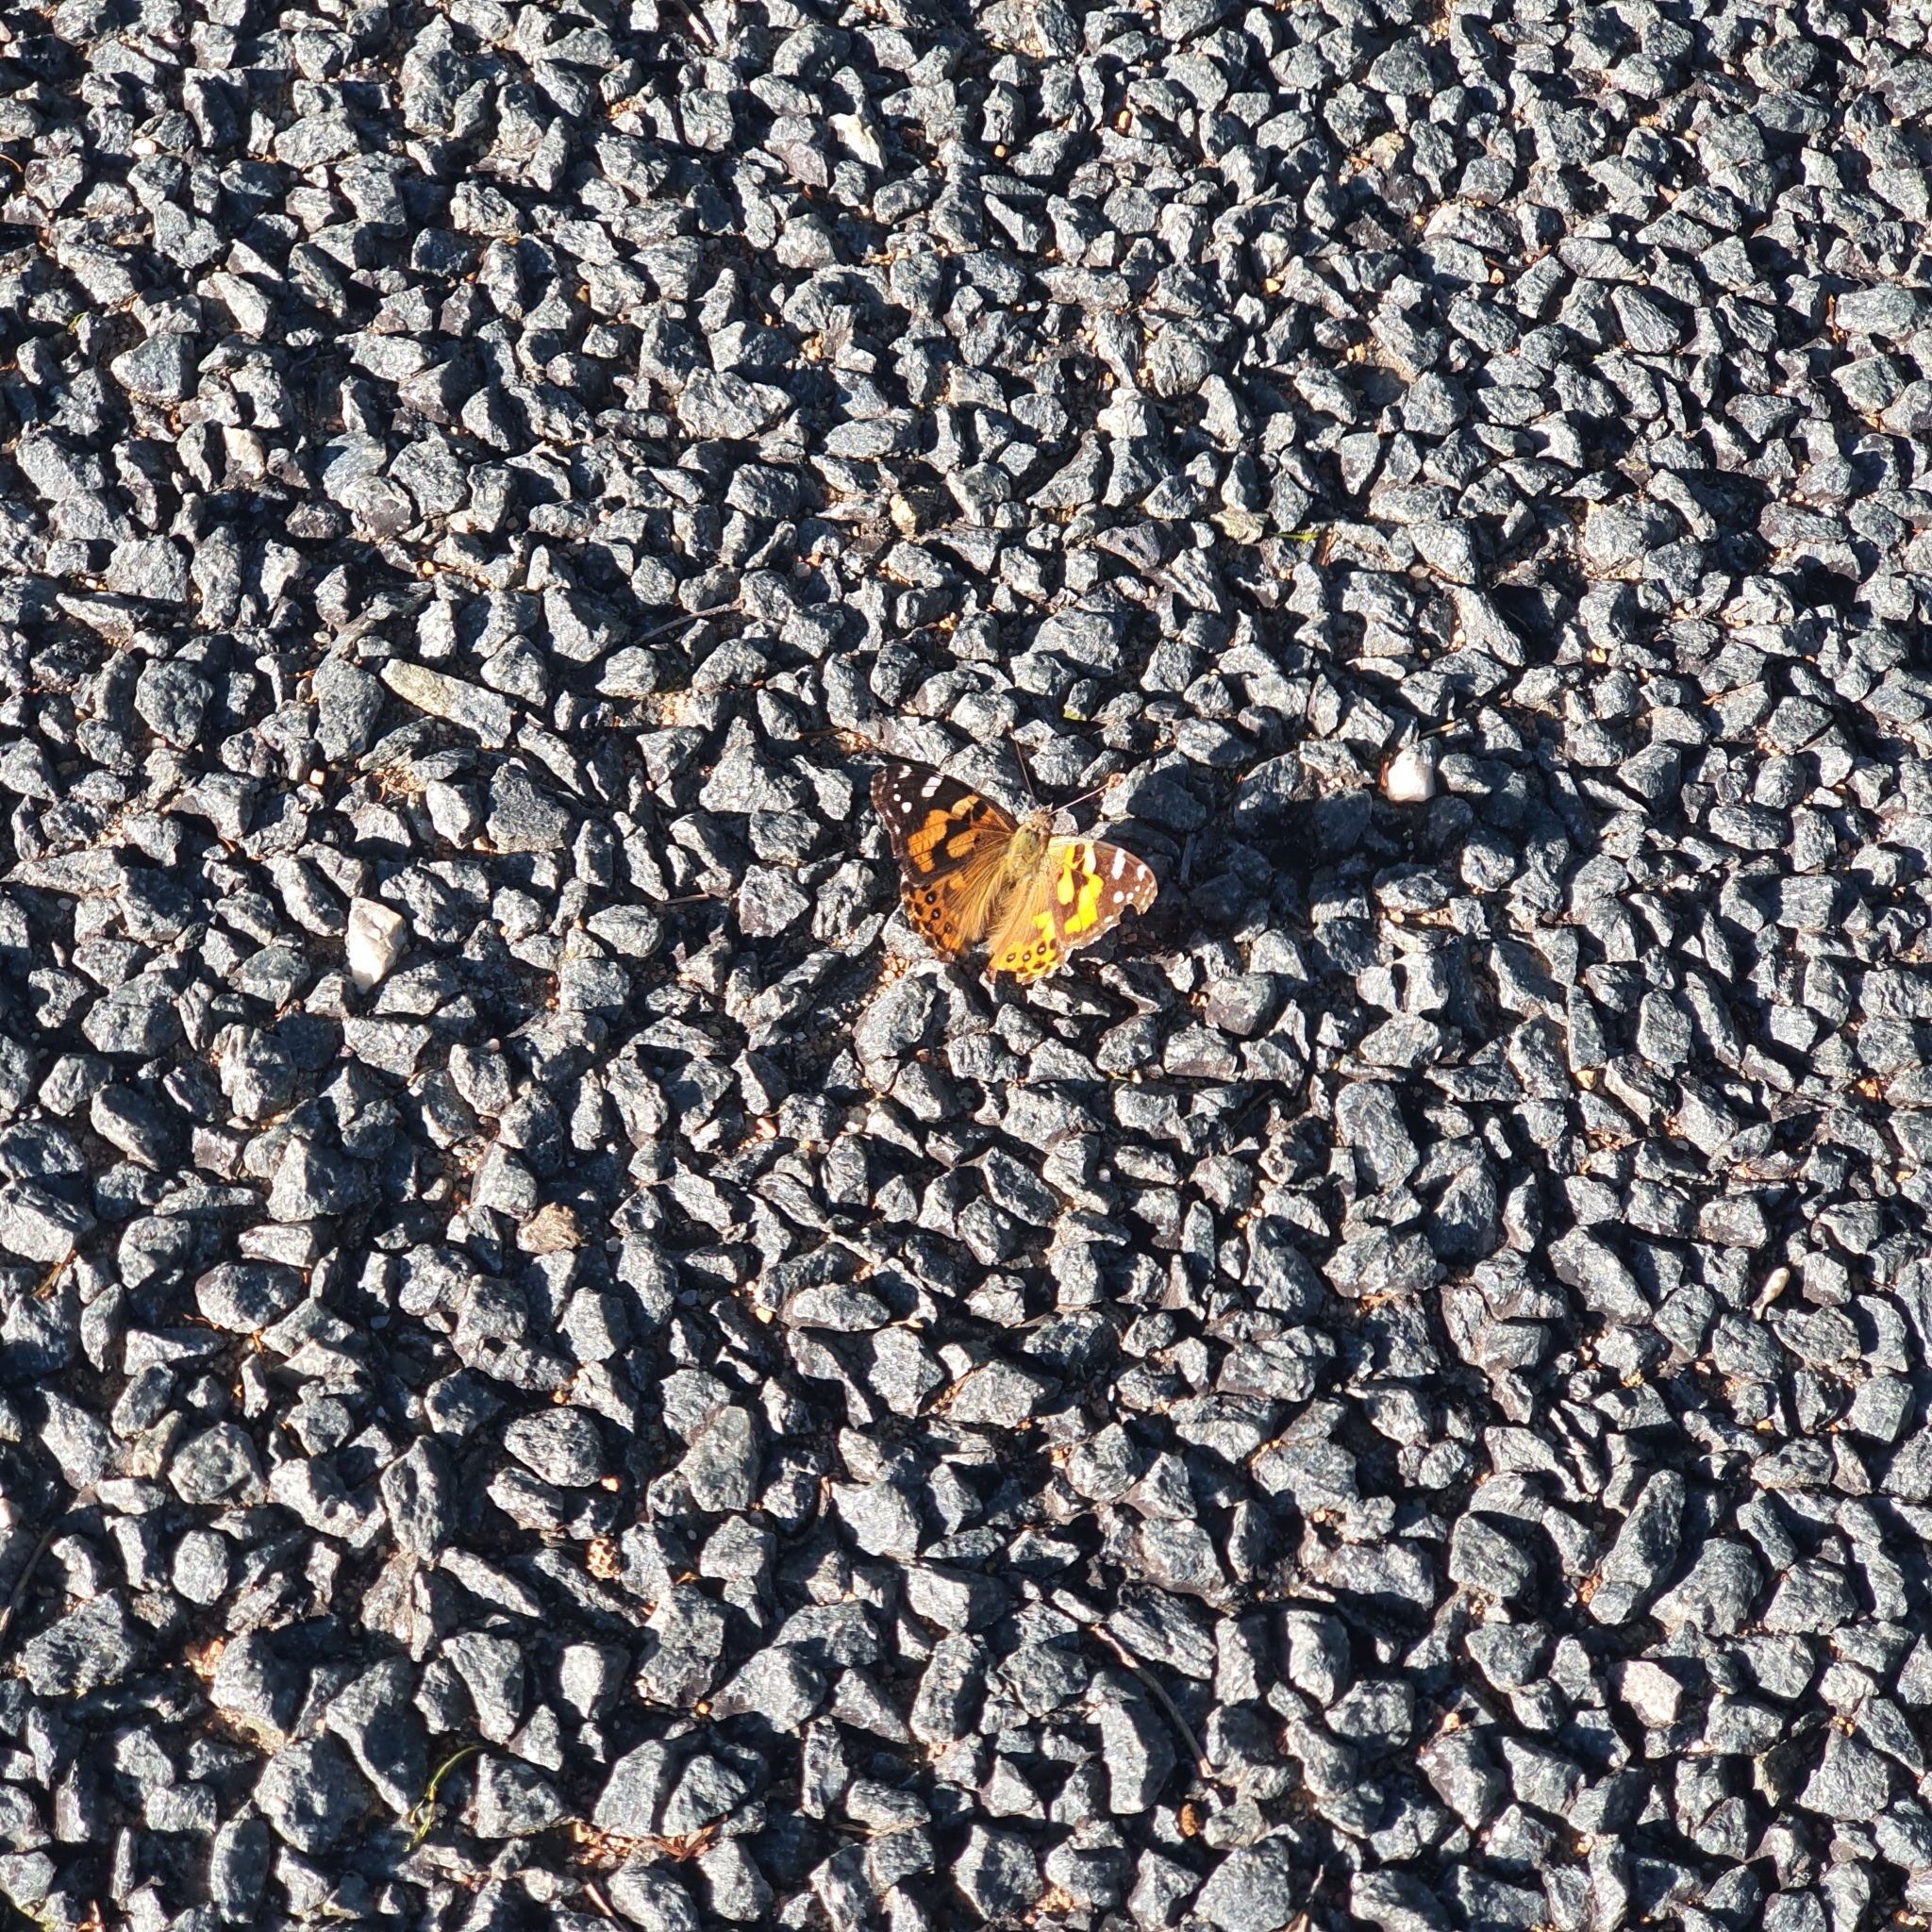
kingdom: Animalia
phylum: Arthropoda
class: Insecta
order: Lepidoptera
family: Nymphalidae
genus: Vanessa
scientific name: Vanessa kershawi
